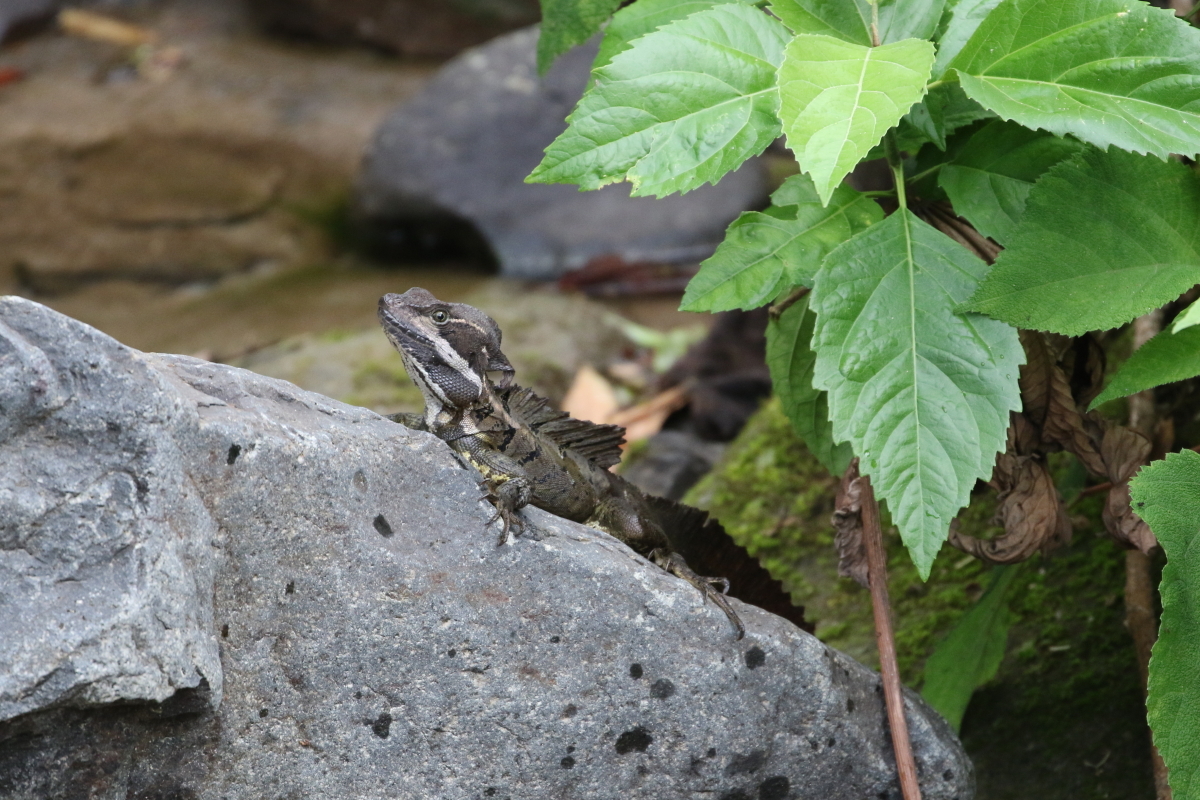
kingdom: Animalia
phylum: Chordata
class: Squamata
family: Corytophanidae
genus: Basiliscus
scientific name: Basiliscus basiliscus
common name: Common basilisk
